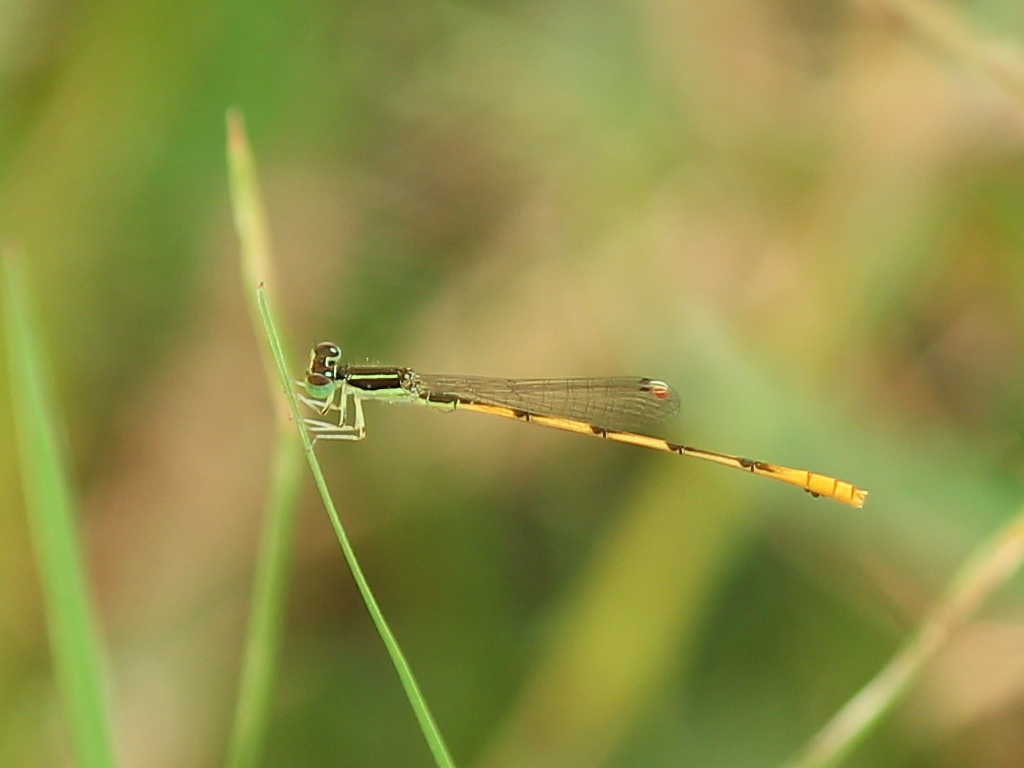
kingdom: Animalia
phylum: Arthropoda
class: Insecta
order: Odonata
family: Coenagrionidae
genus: Ischnura
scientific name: Ischnura hastata
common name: Citrine forktail
